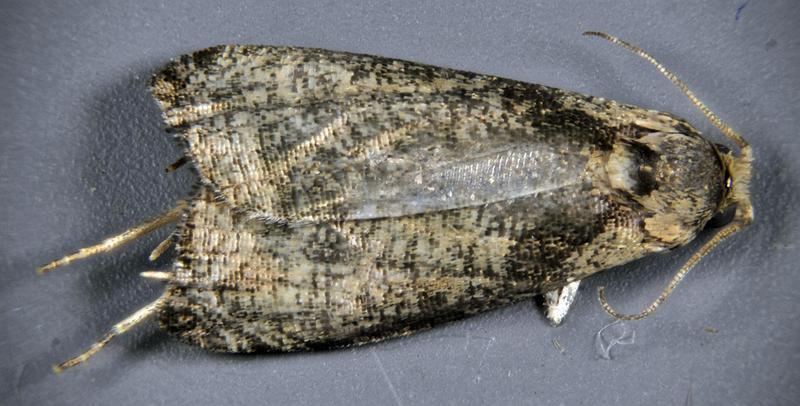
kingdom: Animalia
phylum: Arthropoda
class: Insecta
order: Lepidoptera
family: Tortricidae
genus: Olethreutes
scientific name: Olethreutes exoletum
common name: Wretched olethreutes moth
